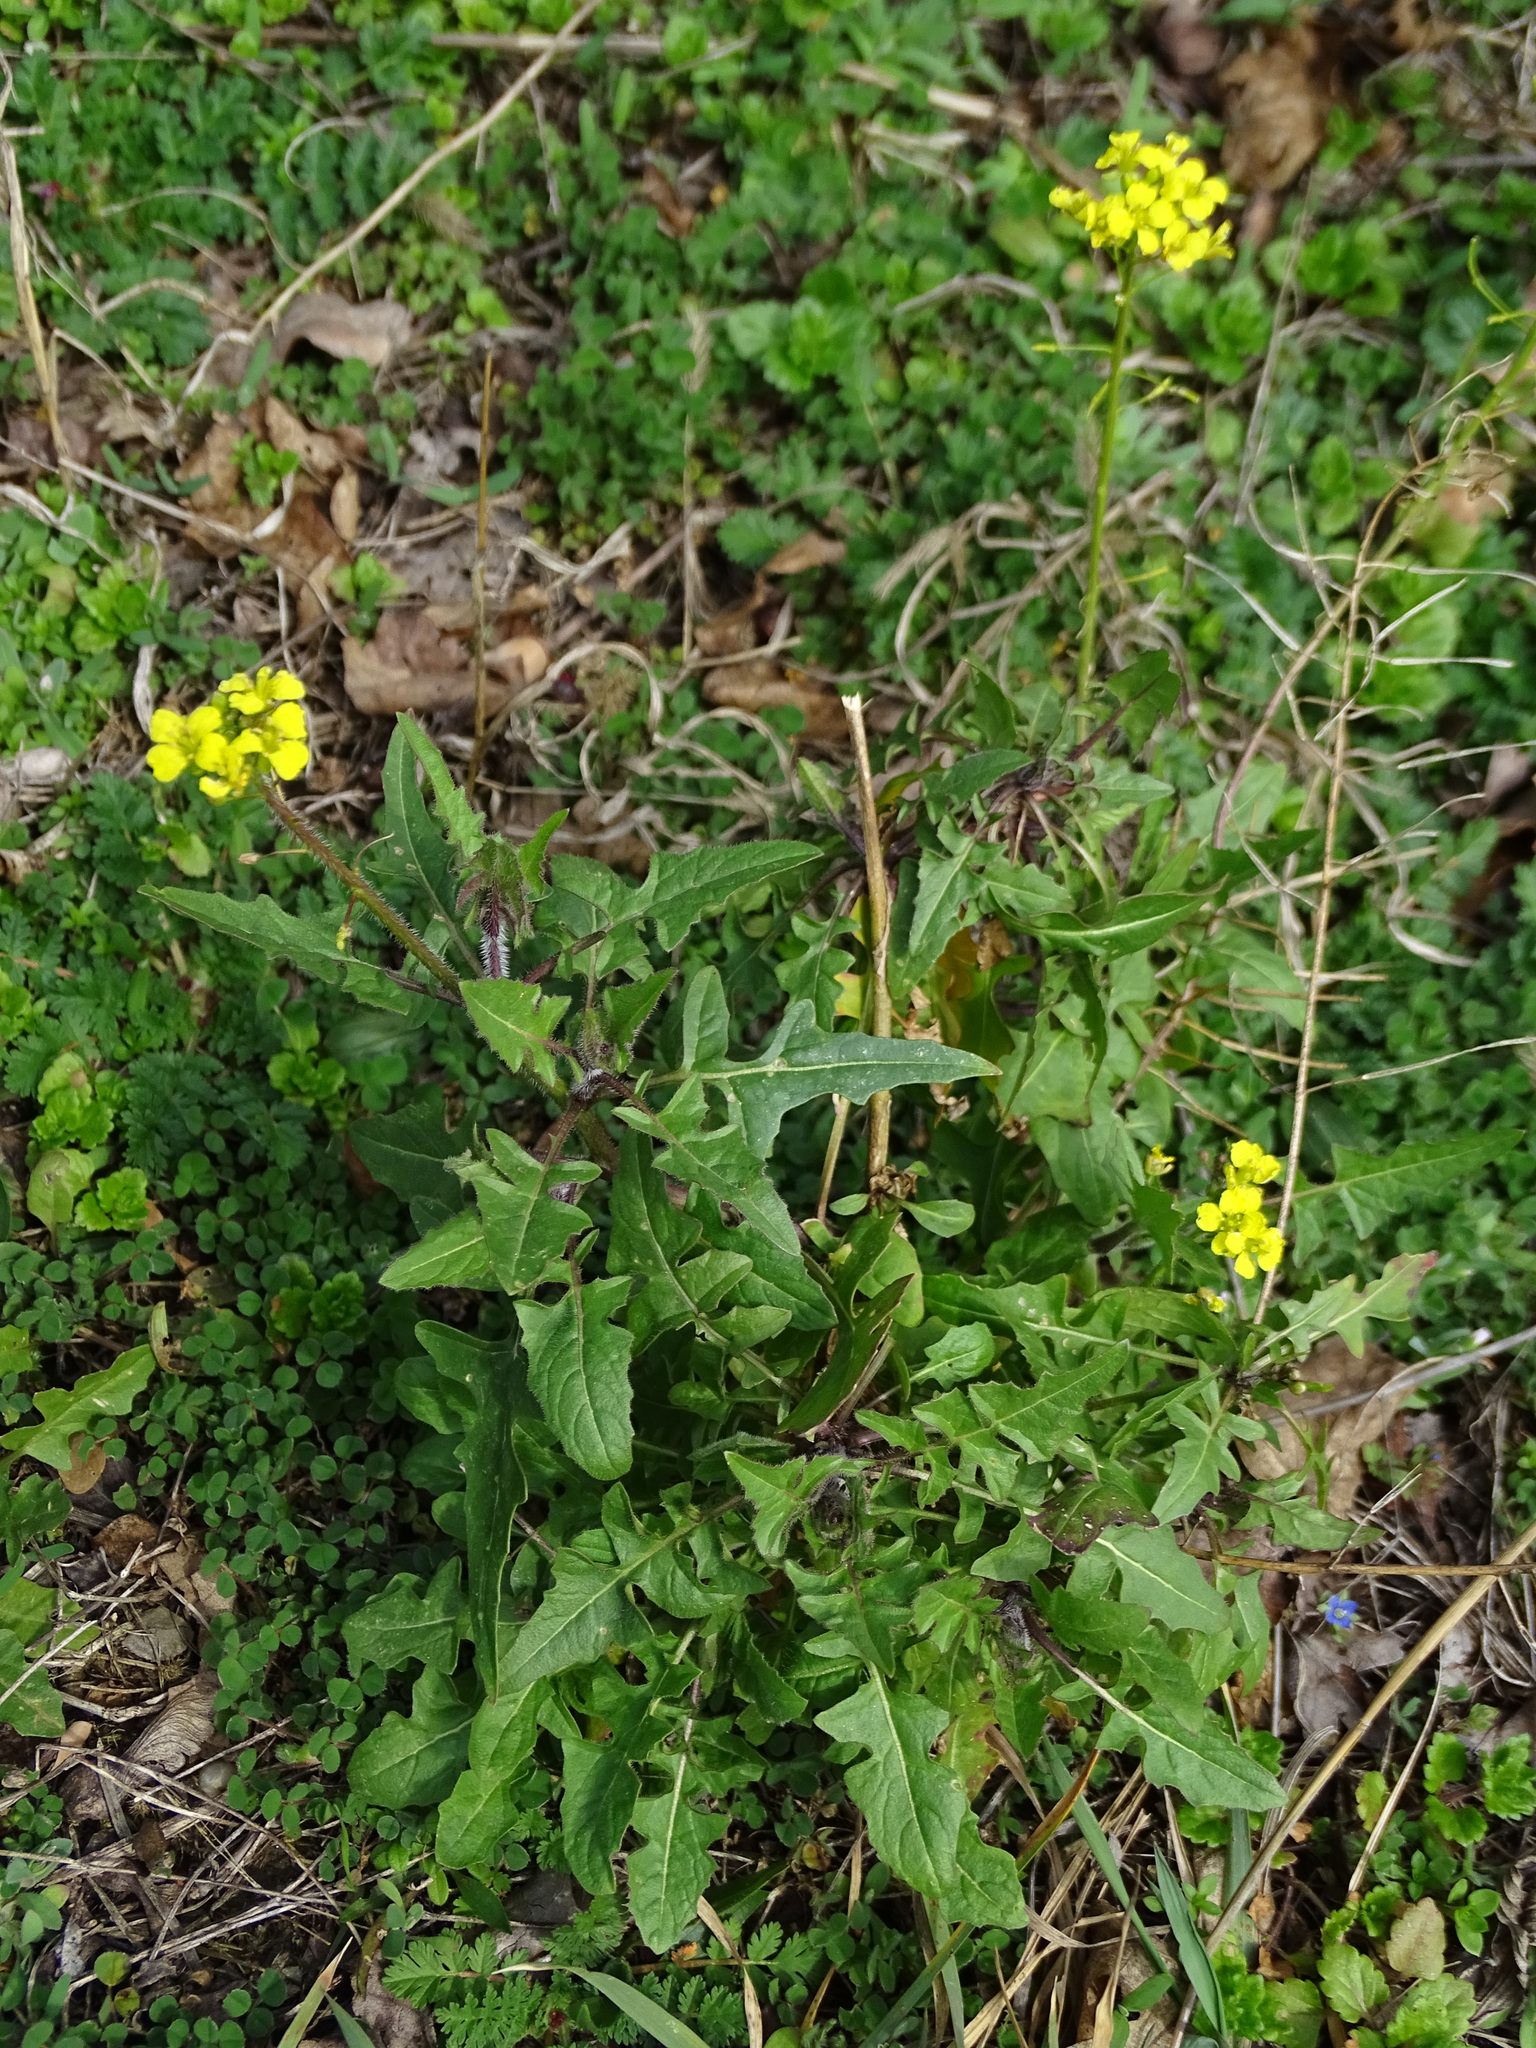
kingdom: Plantae
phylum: Tracheophyta
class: Magnoliopsida
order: Brassicales
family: Brassicaceae
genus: Sisymbrium
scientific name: Sisymbrium loeselii
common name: False london-rocket
